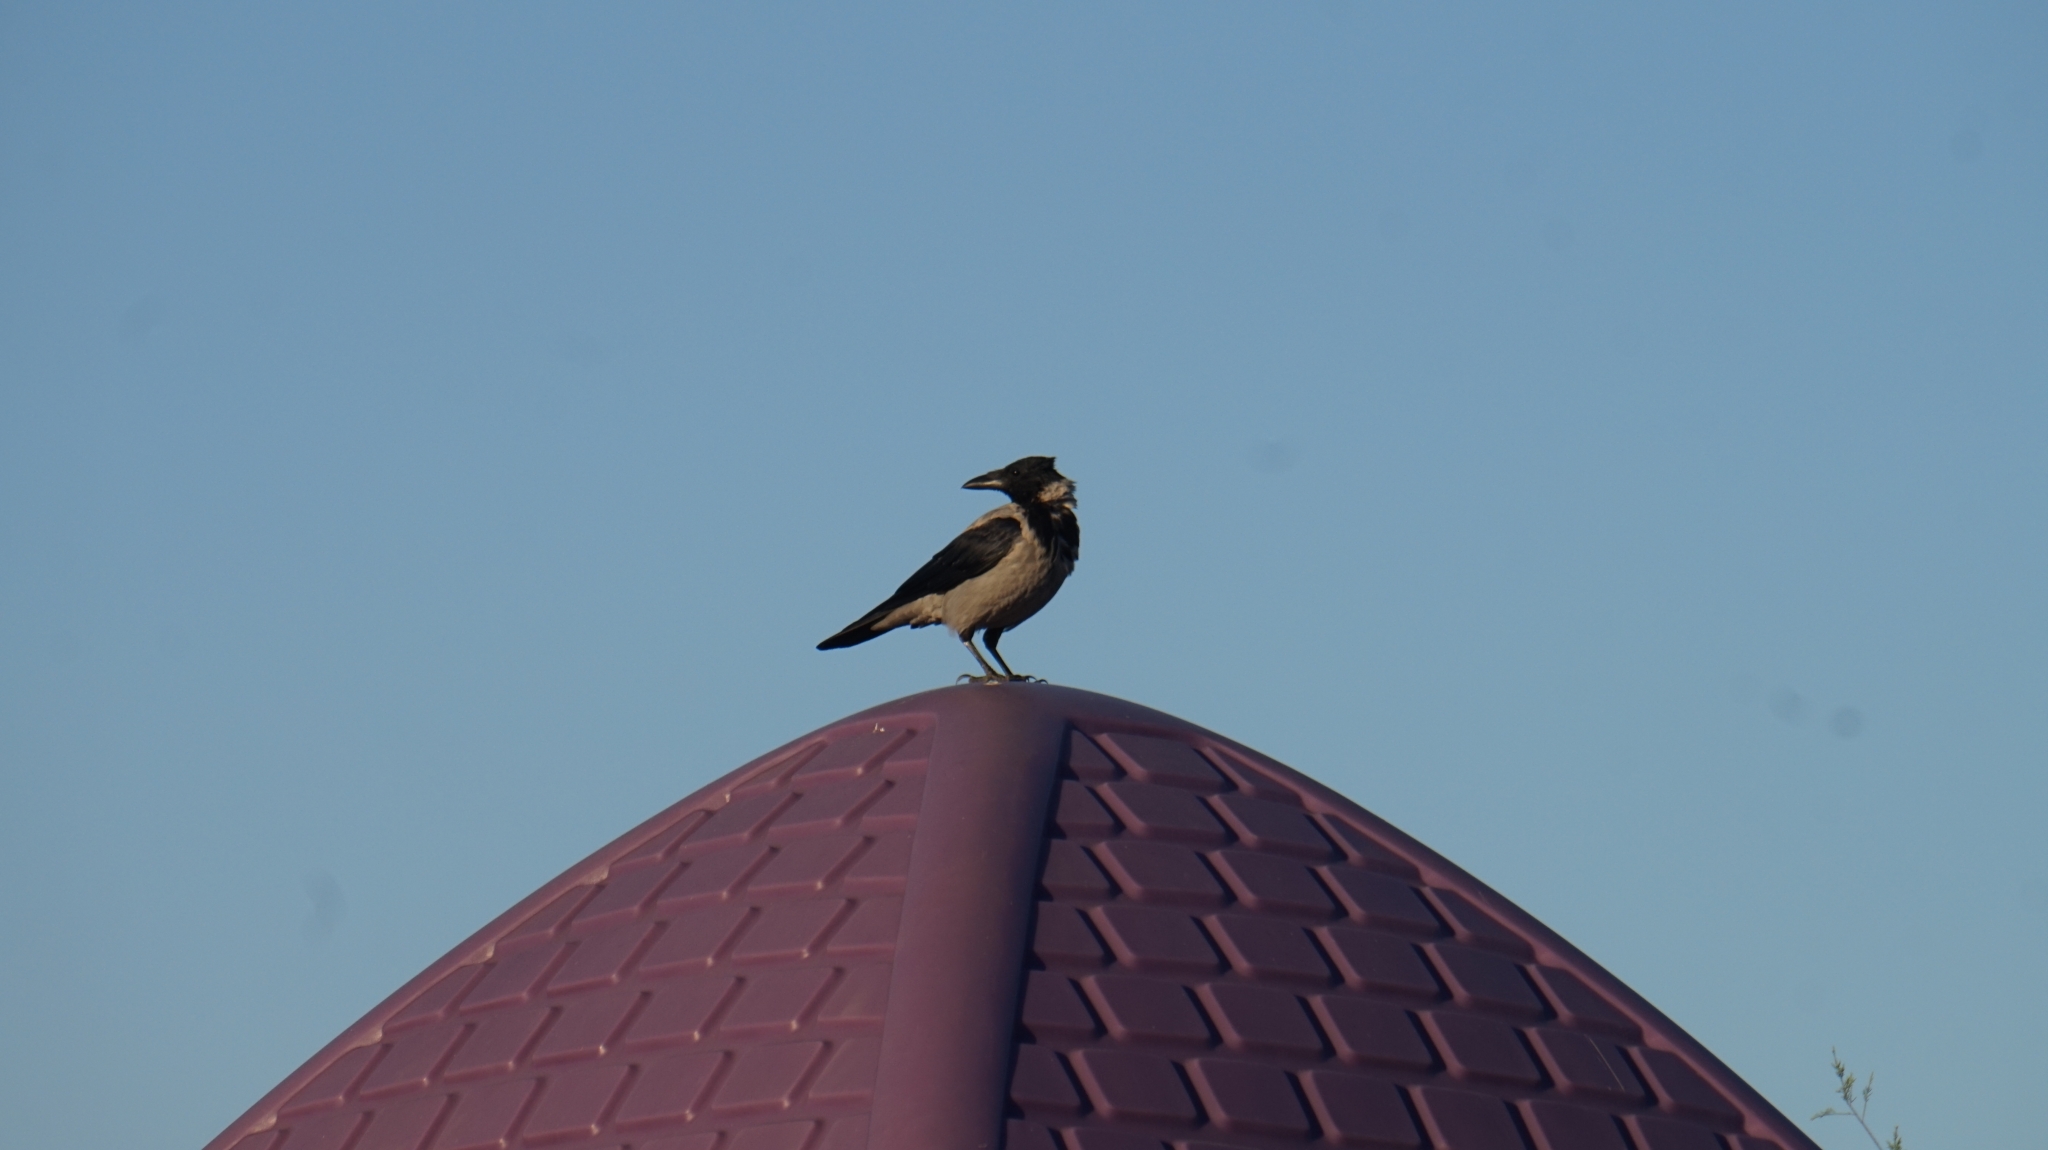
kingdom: Animalia
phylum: Chordata
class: Aves
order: Passeriformes
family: Corvidae
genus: Corvus
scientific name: Corvus cornix
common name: Hooded crow
